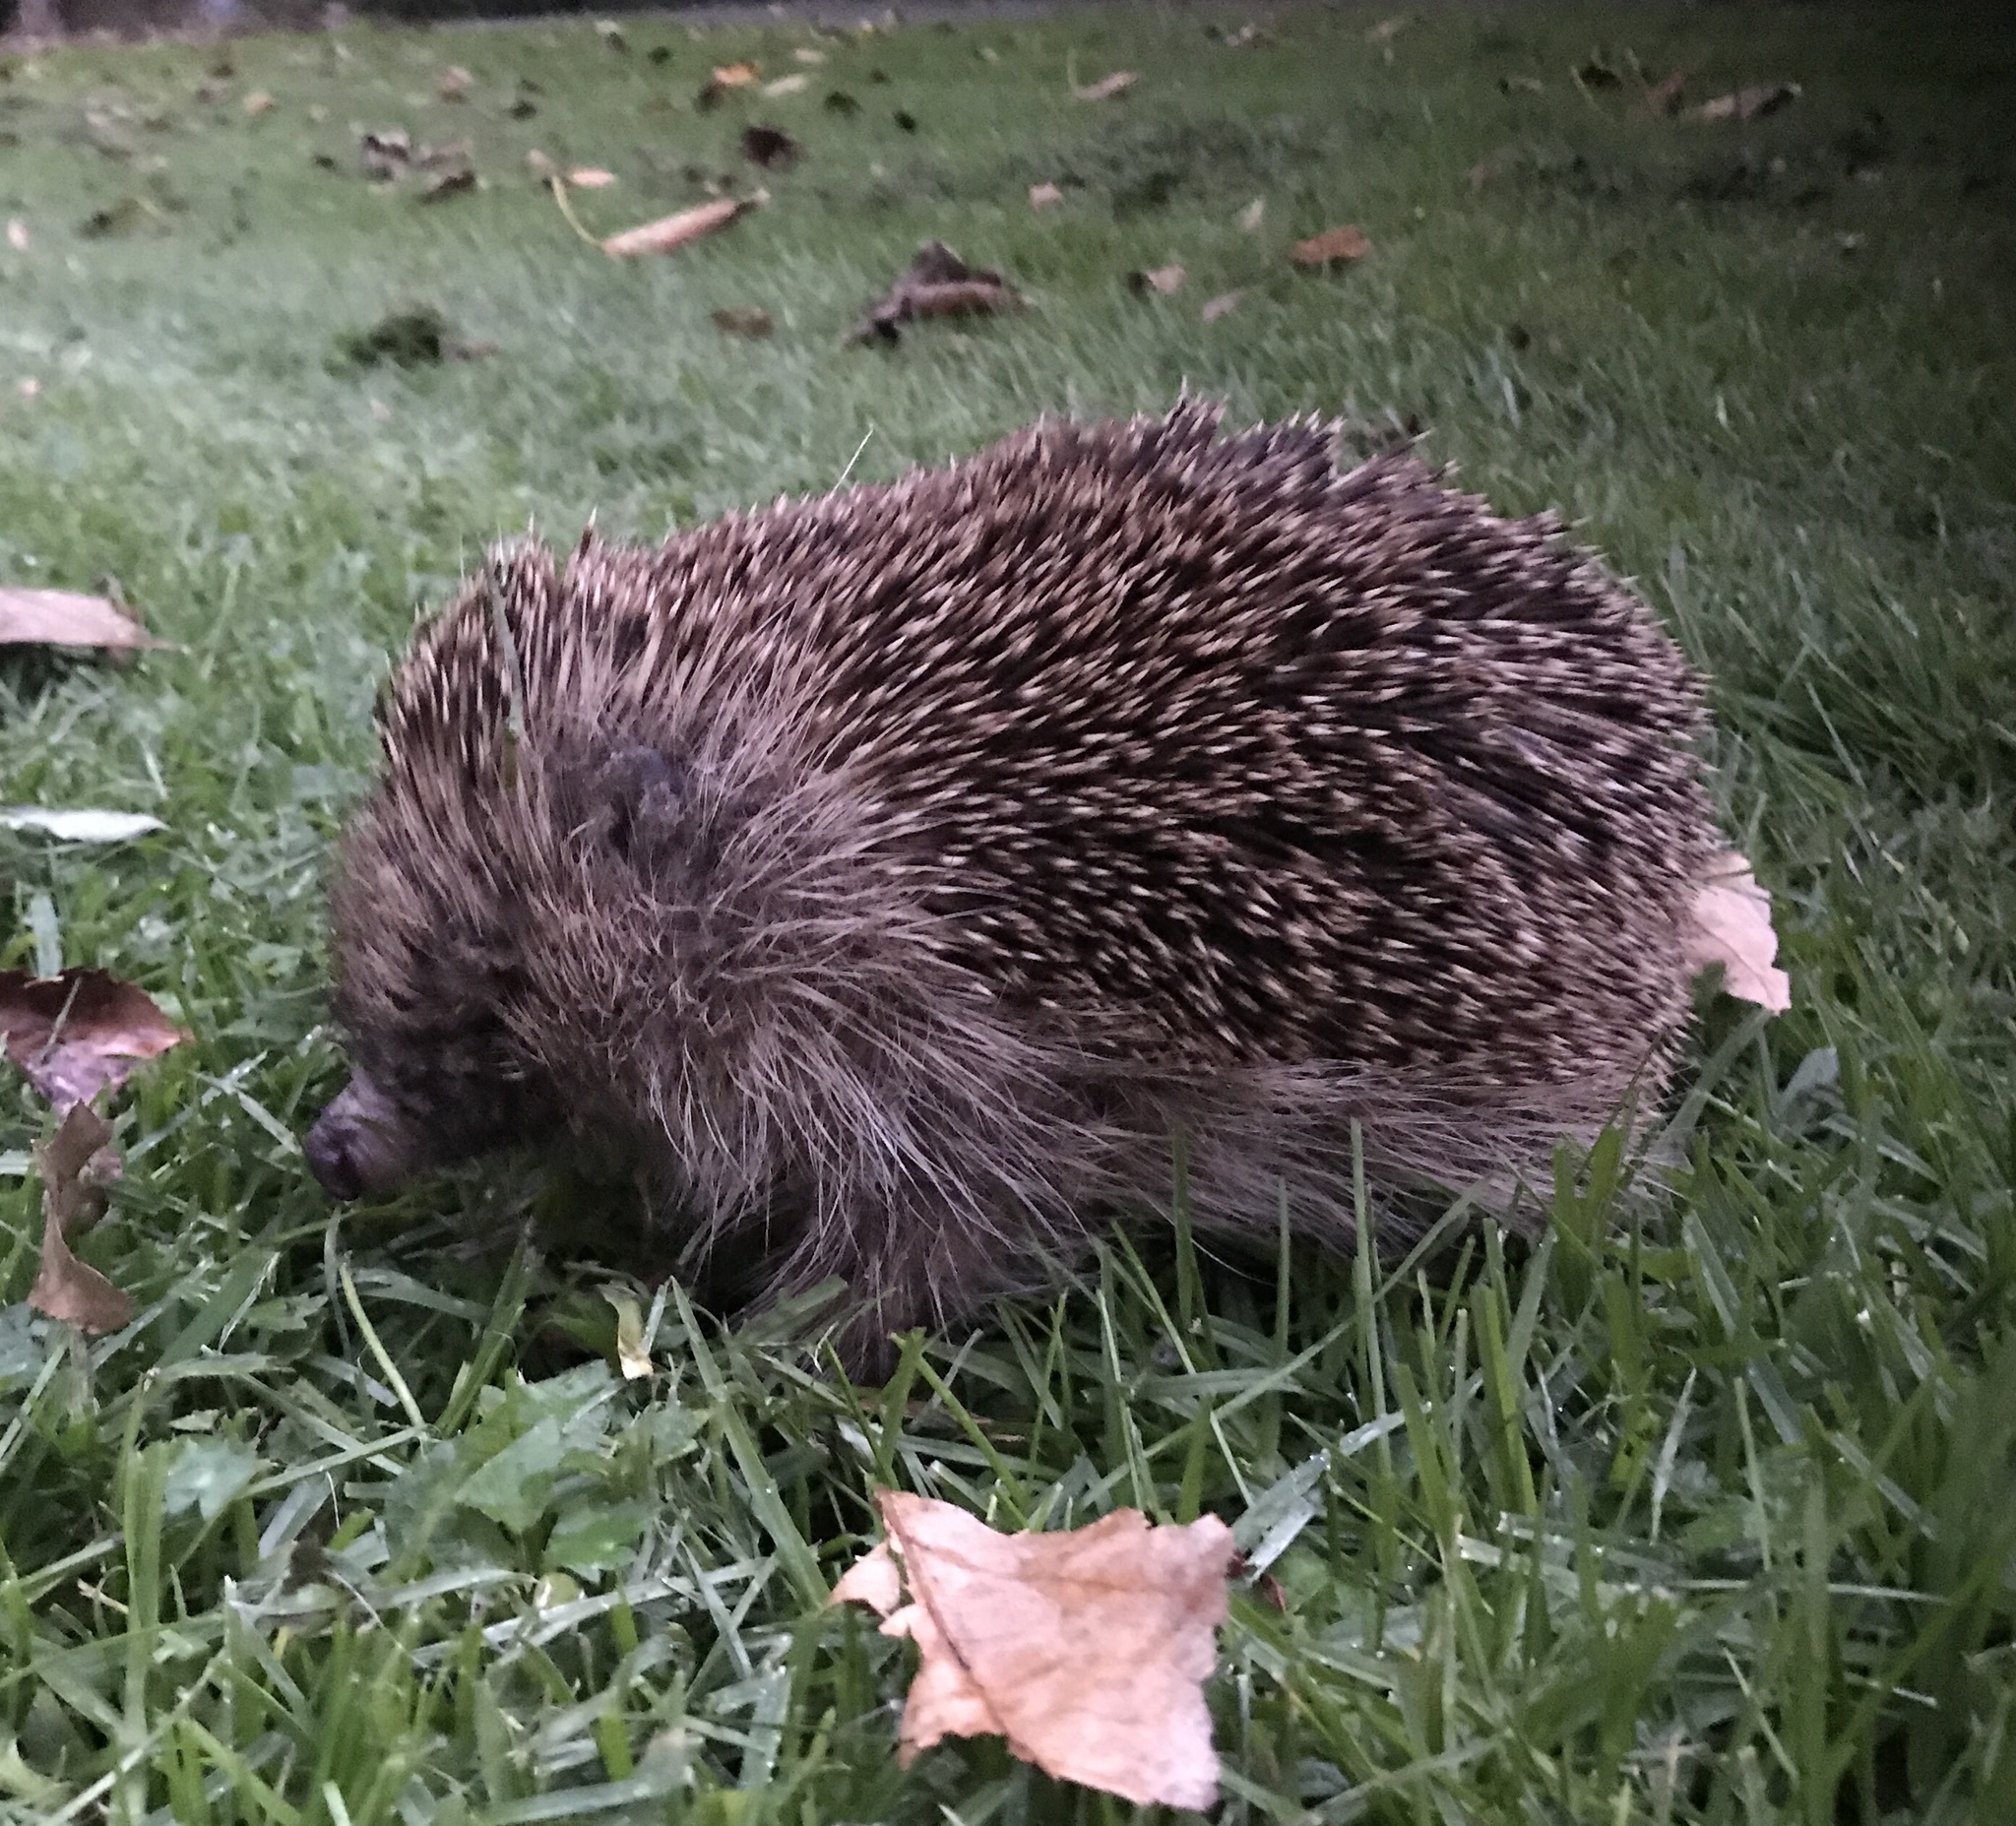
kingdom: Animalia
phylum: Chordata
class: Mammalia
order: Erinaceomorpha
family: Erinaceidae
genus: Erinaceus
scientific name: Erinaceus europaeus
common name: West european hedgehog
